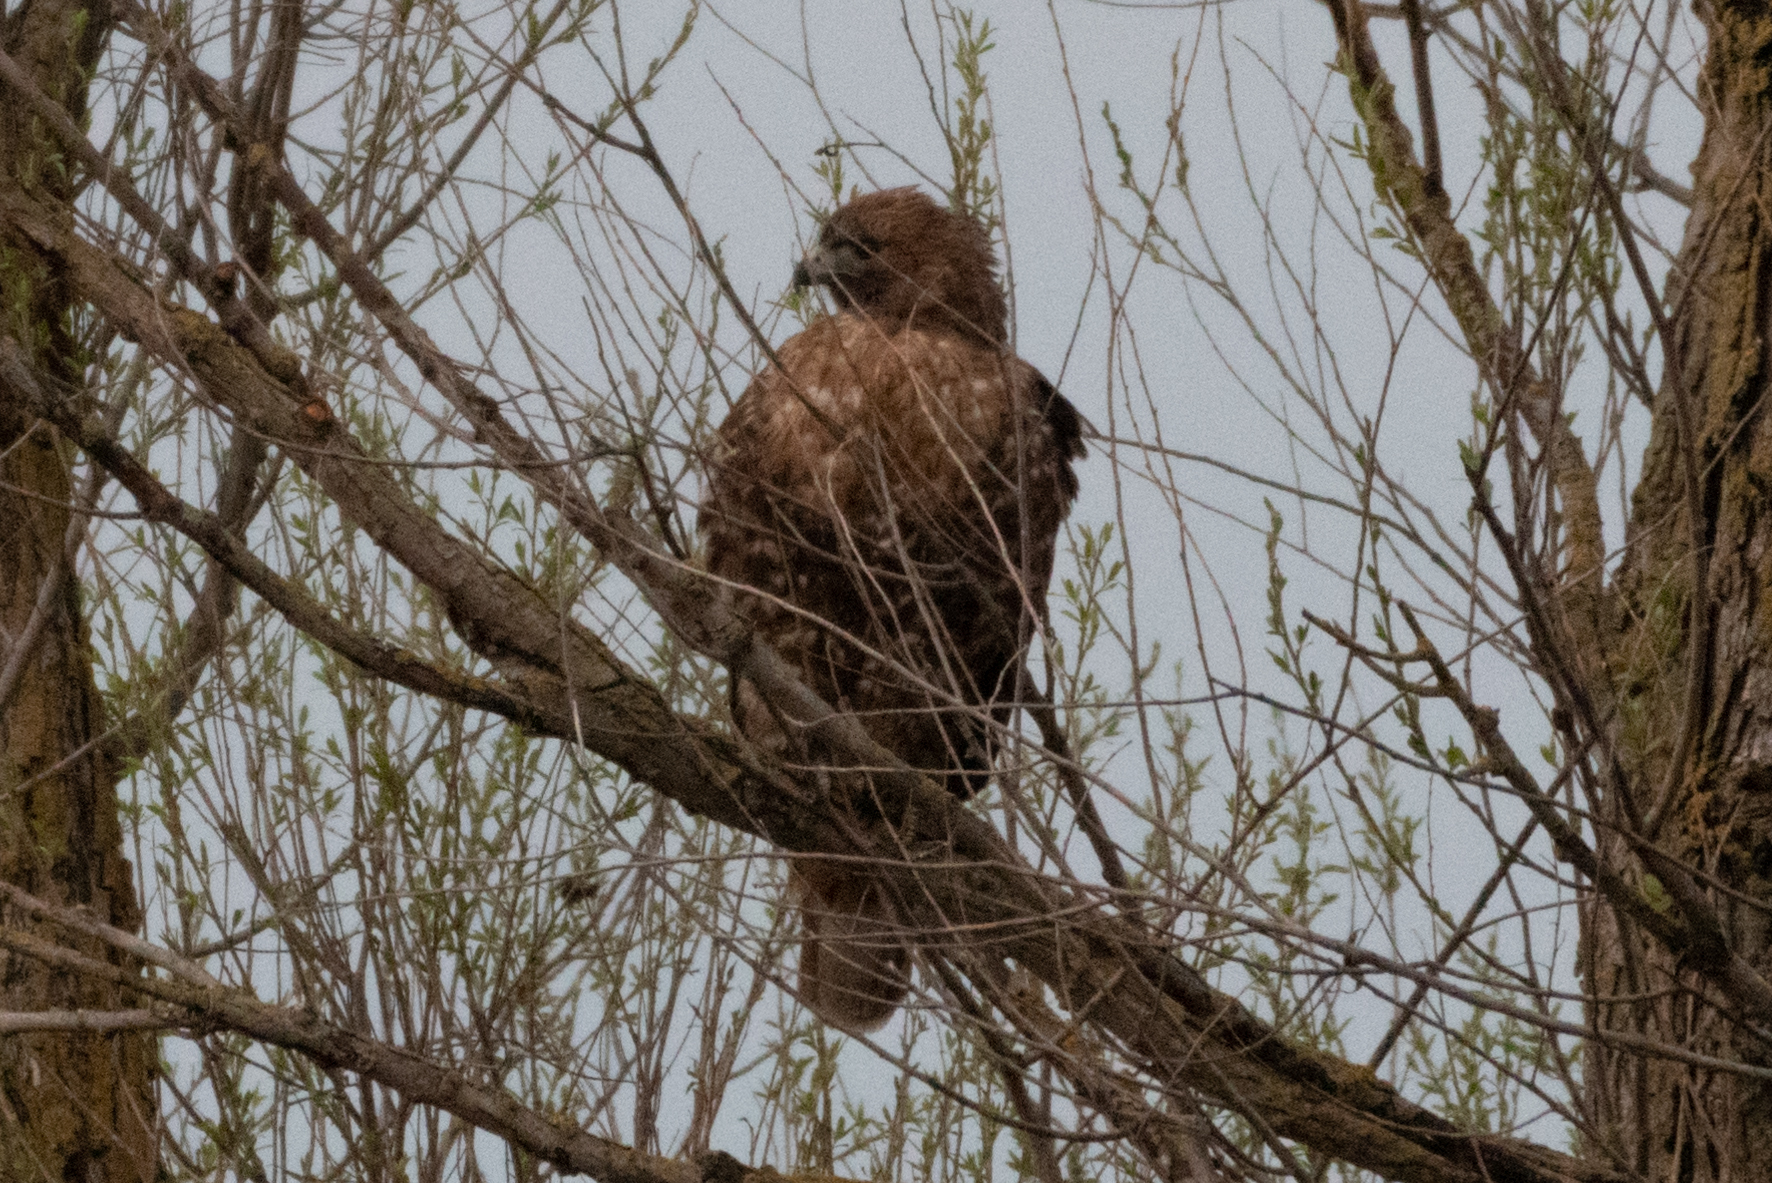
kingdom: Animalia
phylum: Chordata
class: Aves
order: Accipitriformes
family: Accipitridae
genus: Buteo
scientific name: Buteo jamaicensis
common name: Red-tailed hawk
